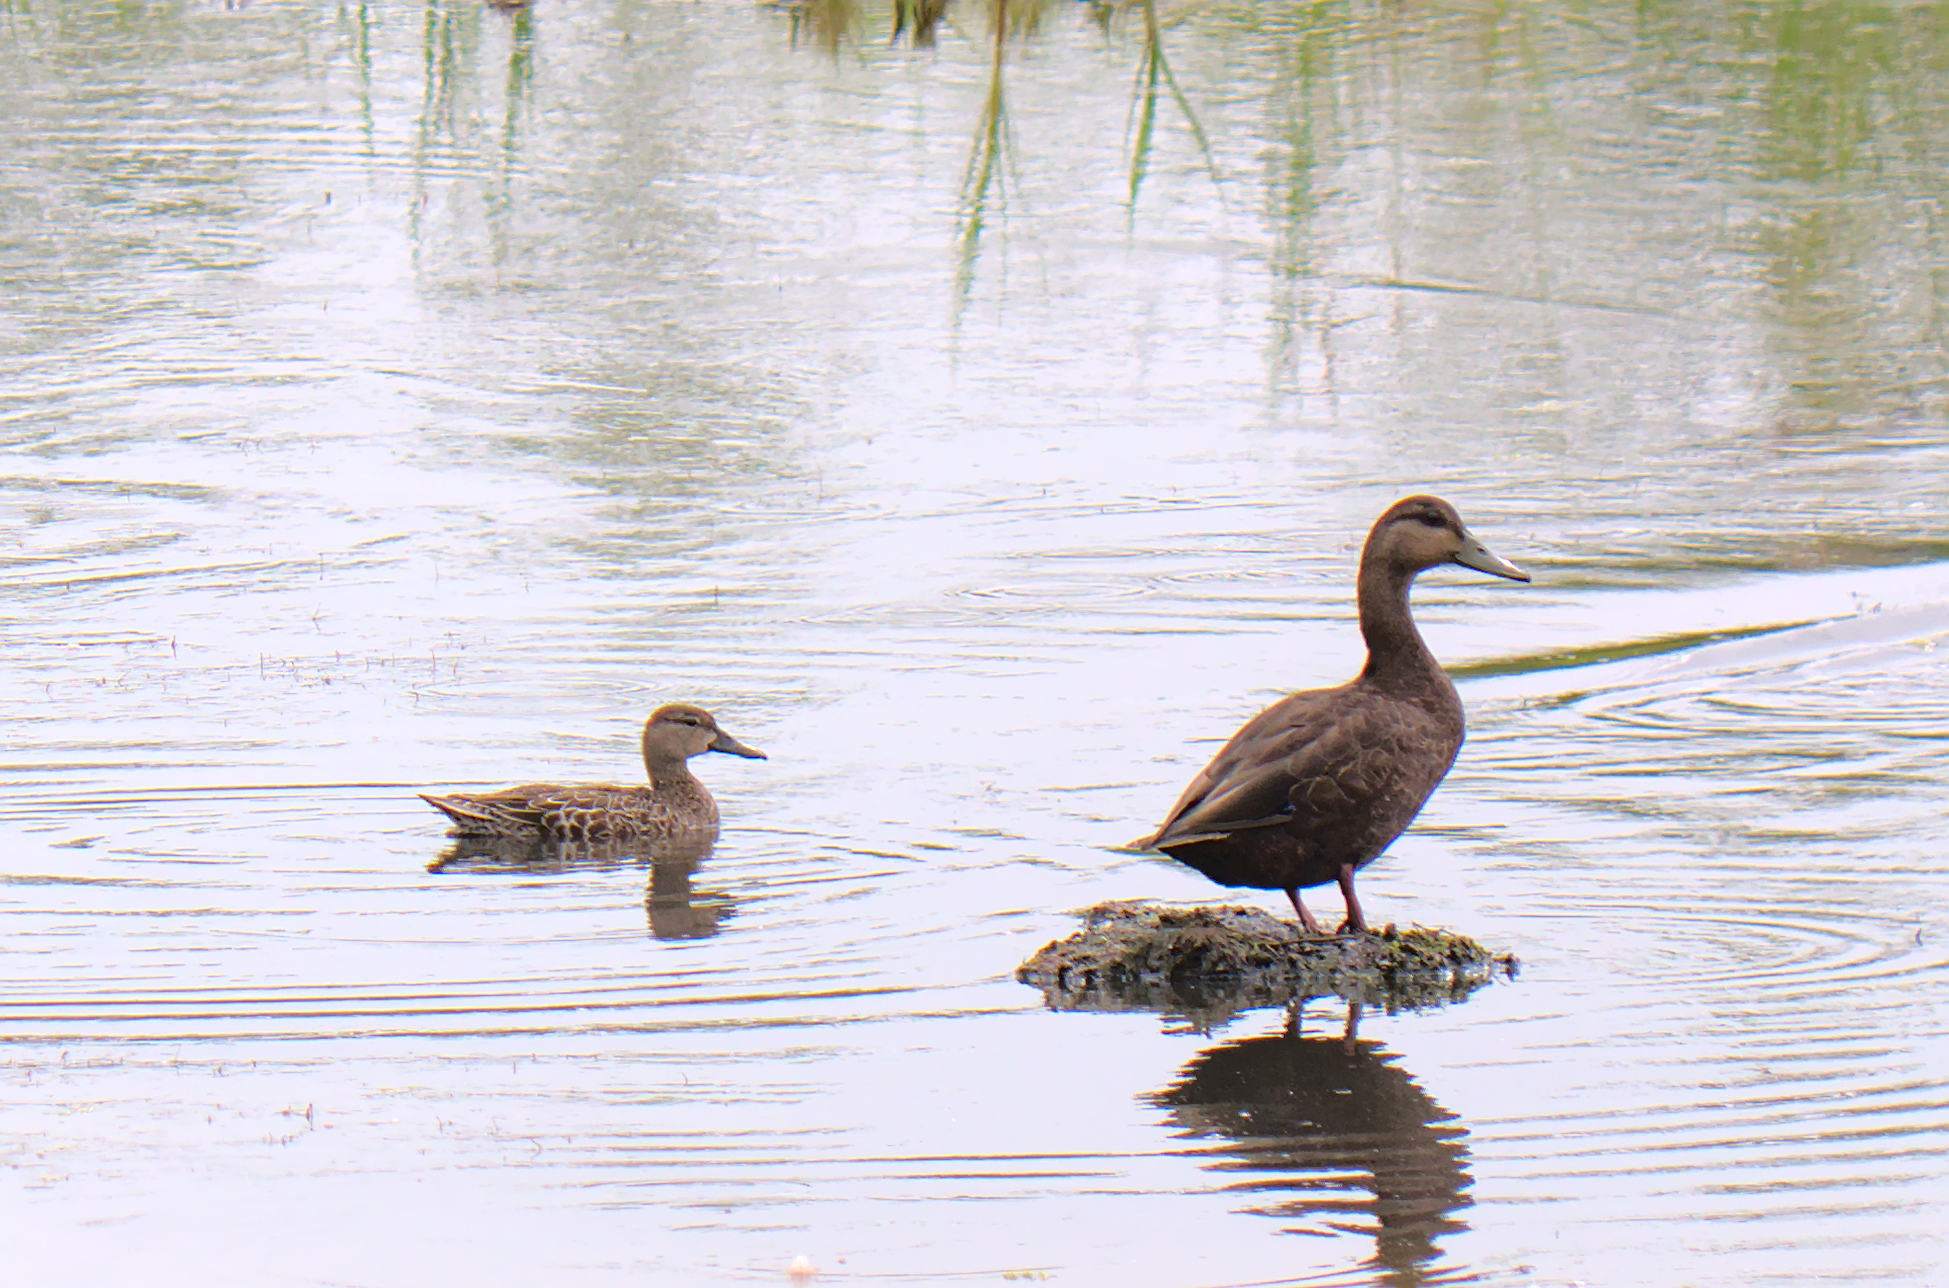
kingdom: Animalia
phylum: Chordata
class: Aves
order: Anseriformes
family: Anatidae
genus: Spatula
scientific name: Spatula discors
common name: Blue-winged teal
